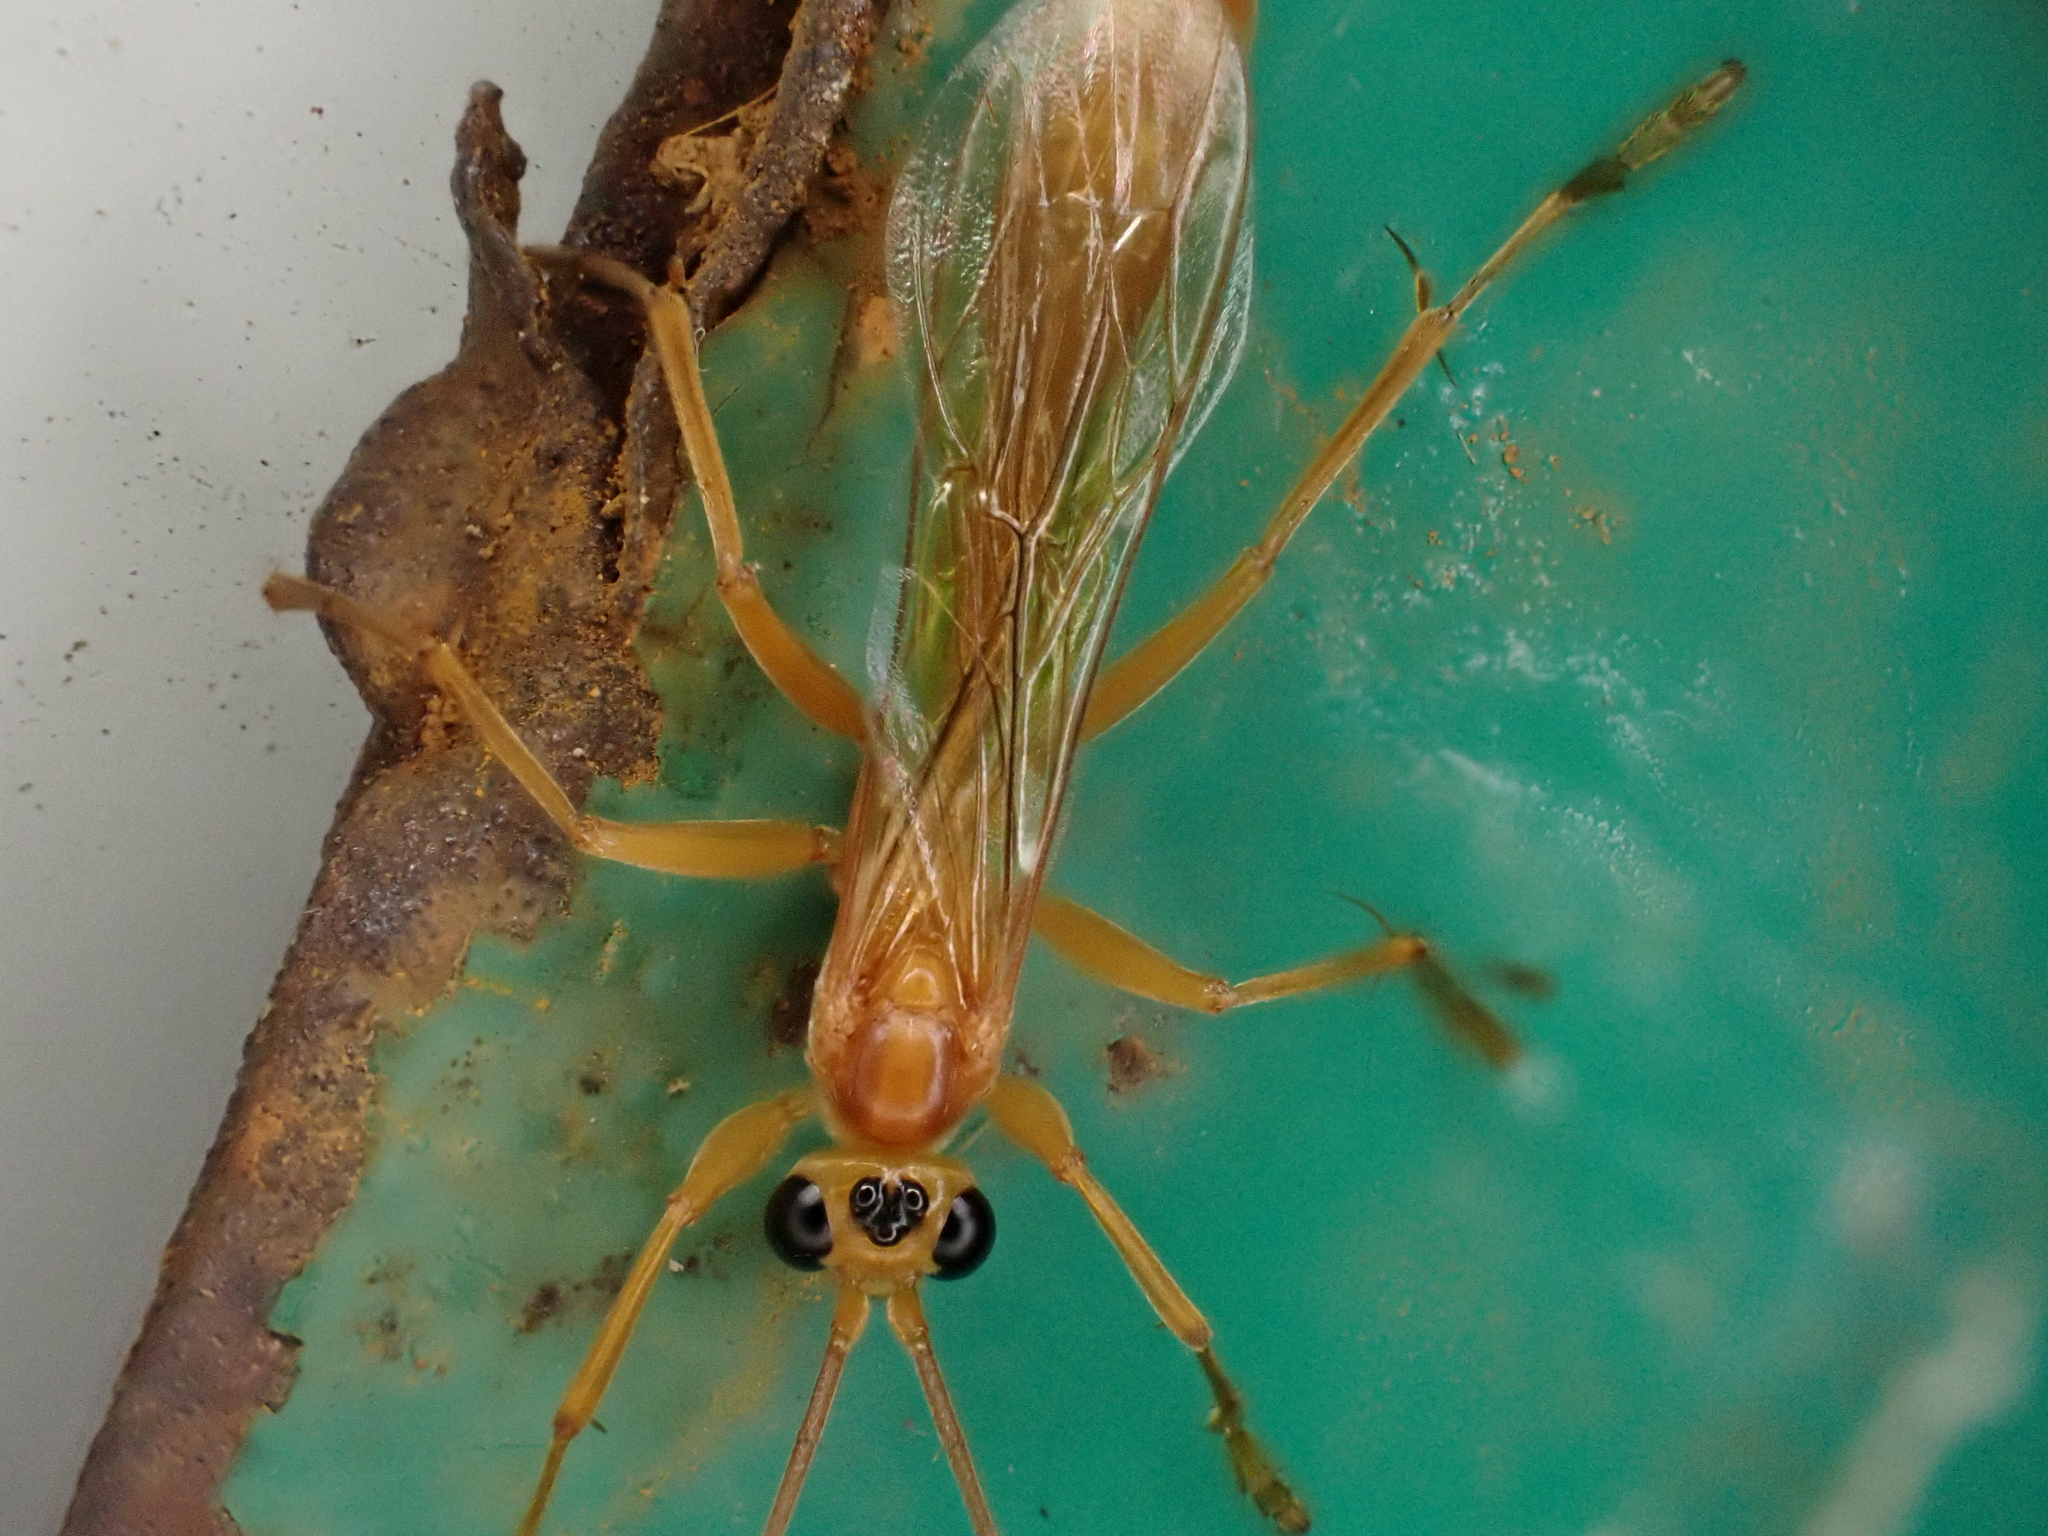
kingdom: Animalia
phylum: Arthropoda
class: Insecta
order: Hymenoptera
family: Rhopalosomatidae
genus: Rhopalosoma
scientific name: Rhopalosoma nearcticum
